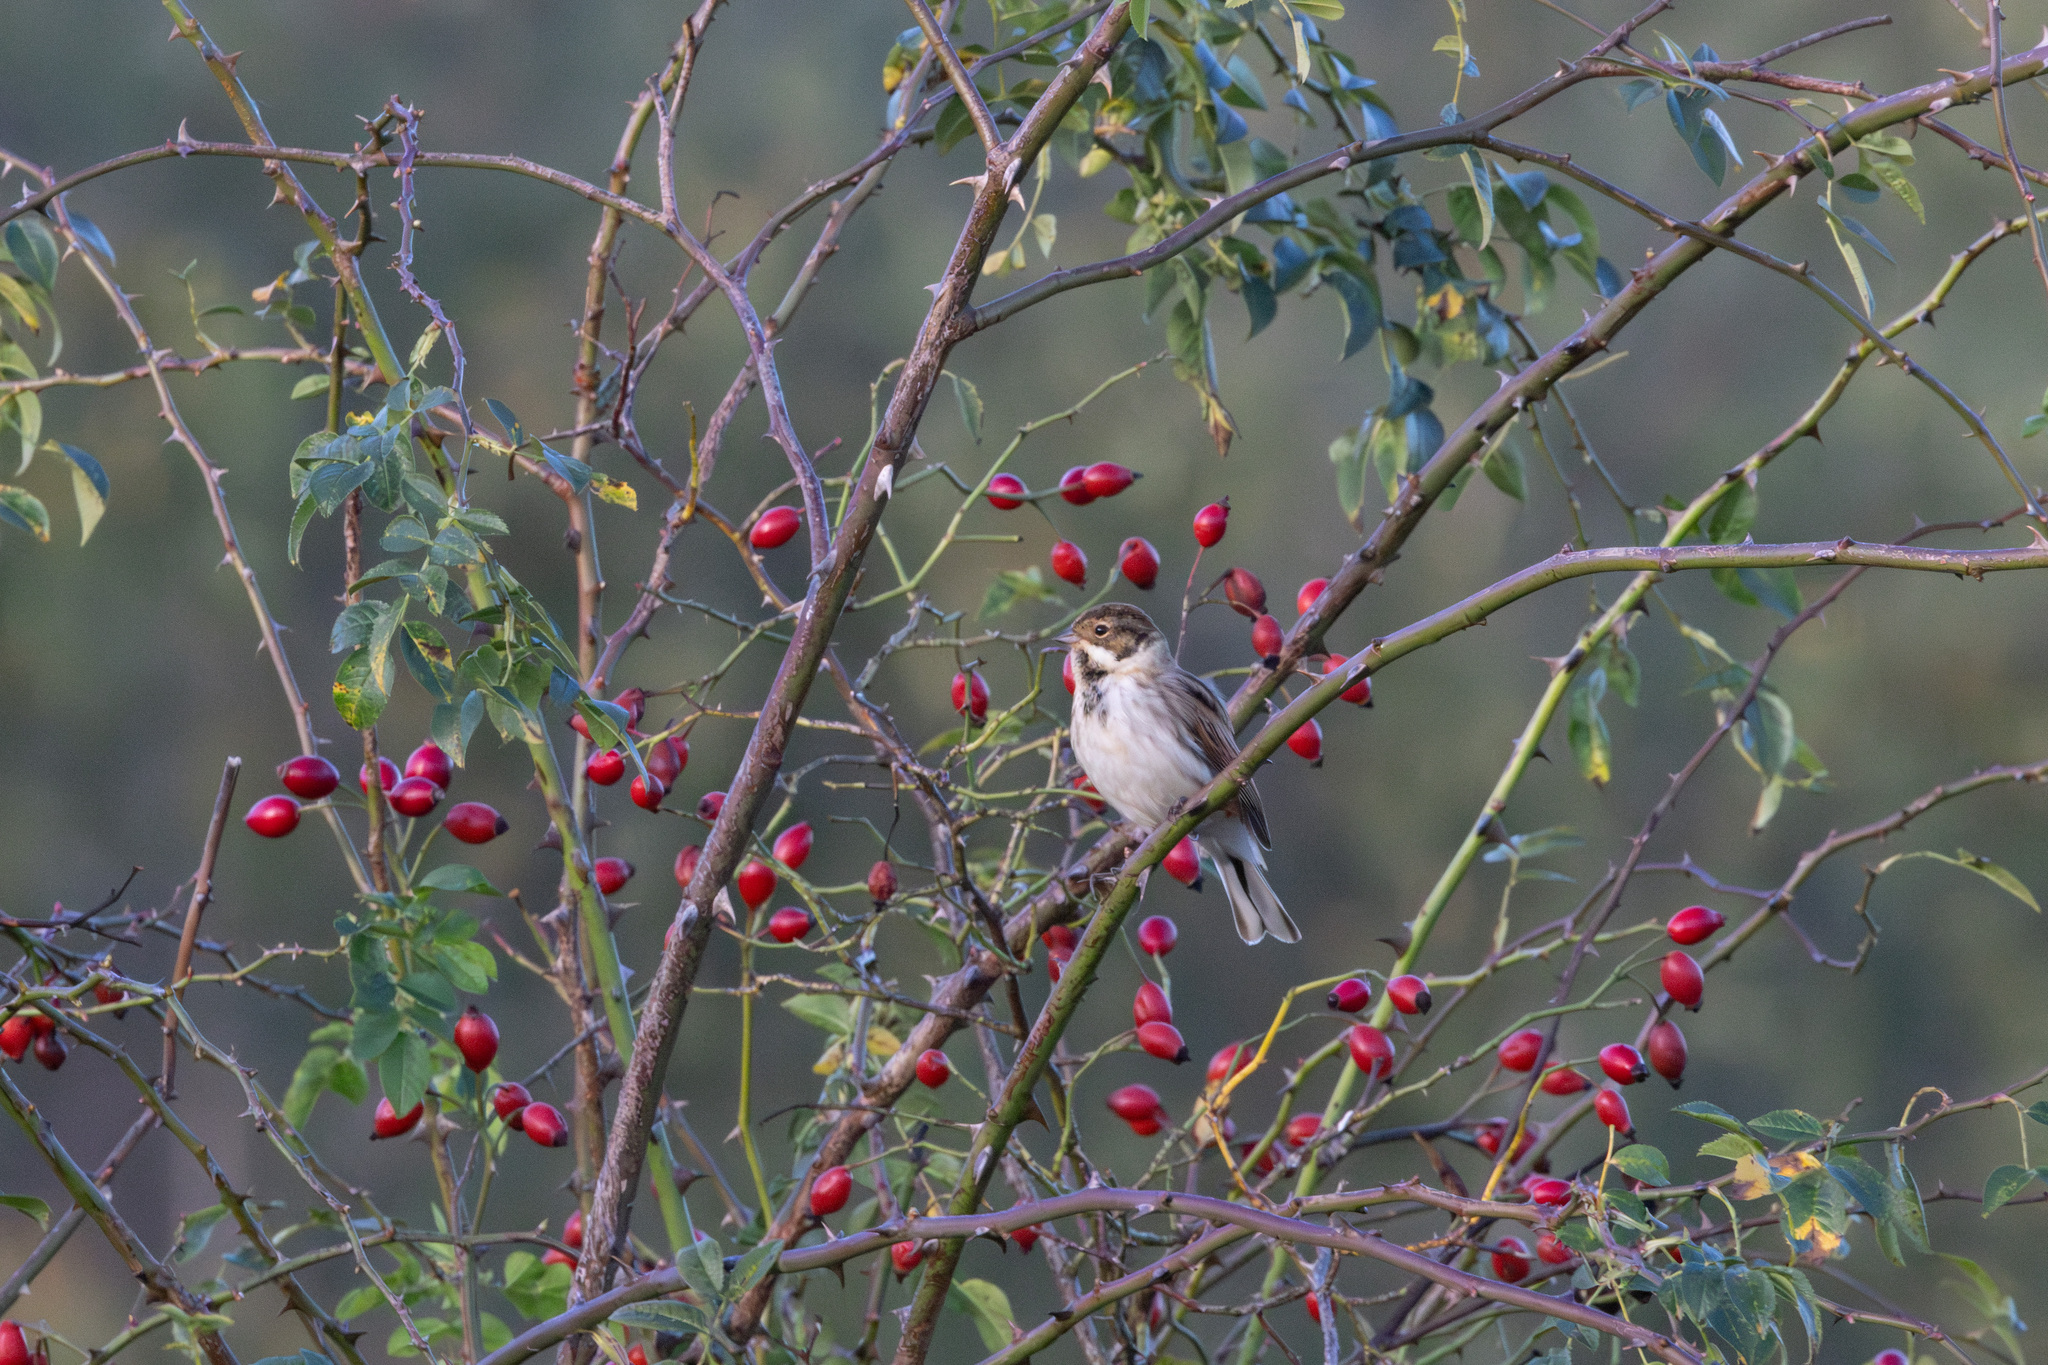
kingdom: Animalia
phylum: Chordata
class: Aves
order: Passeriformes
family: Emberizidae
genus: Emberiza
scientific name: Emberiza schoeniclus
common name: Reed bunting
